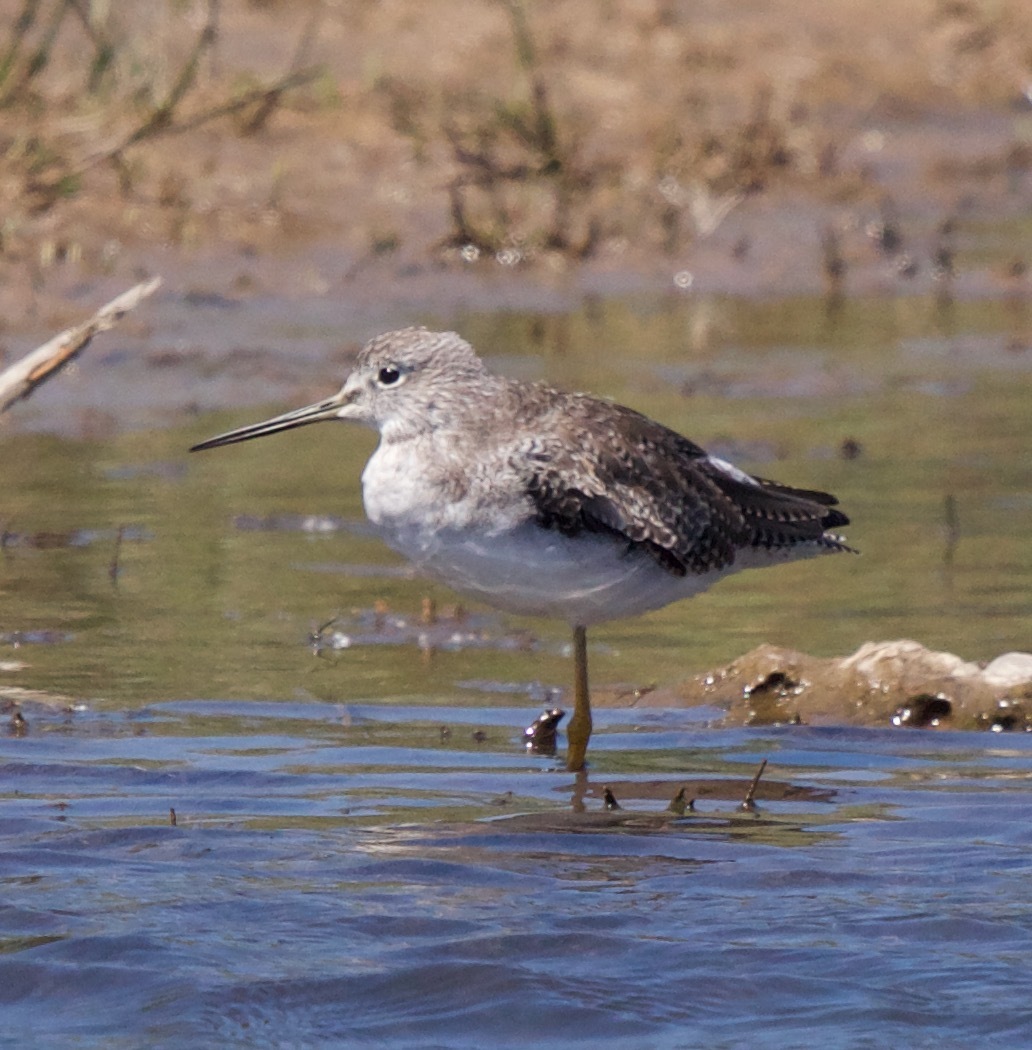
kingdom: Animalia
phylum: Chordata
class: Aves
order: Charadriiformes
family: Scolopacidae
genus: Tringa
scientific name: Tringa melanoleuca
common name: Greater yellowlegs
